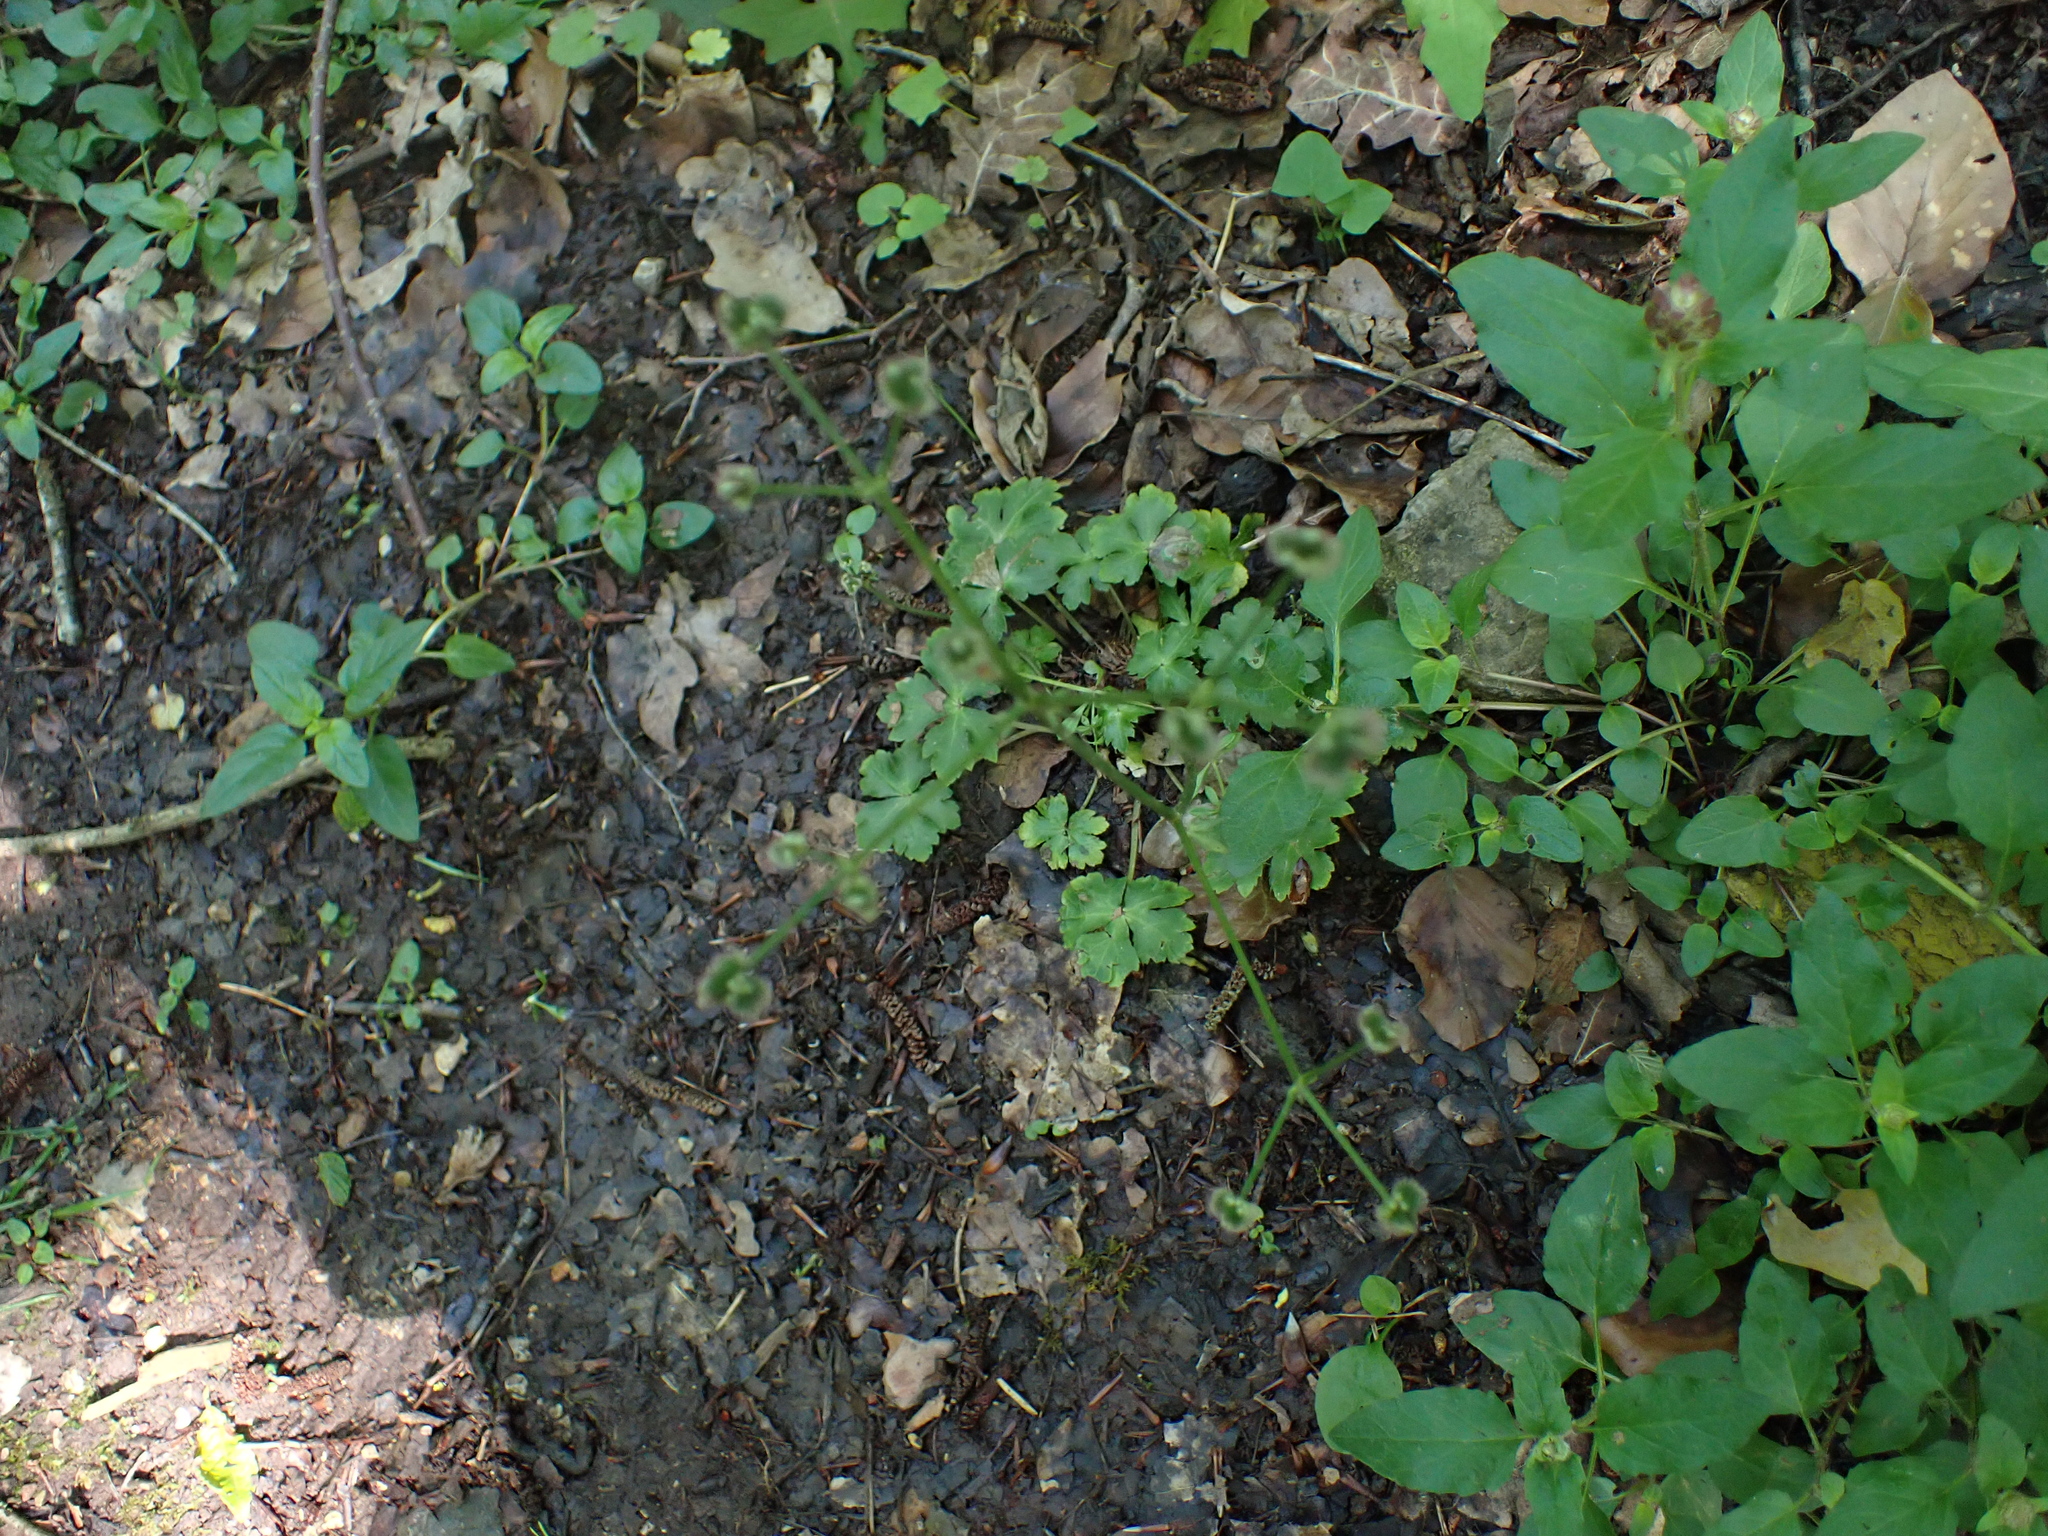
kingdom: Animalia
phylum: Arthropoda
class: Insecta
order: Diptera
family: Agromyzidae
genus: Phytomyza
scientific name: Phytomyza brunnipes
